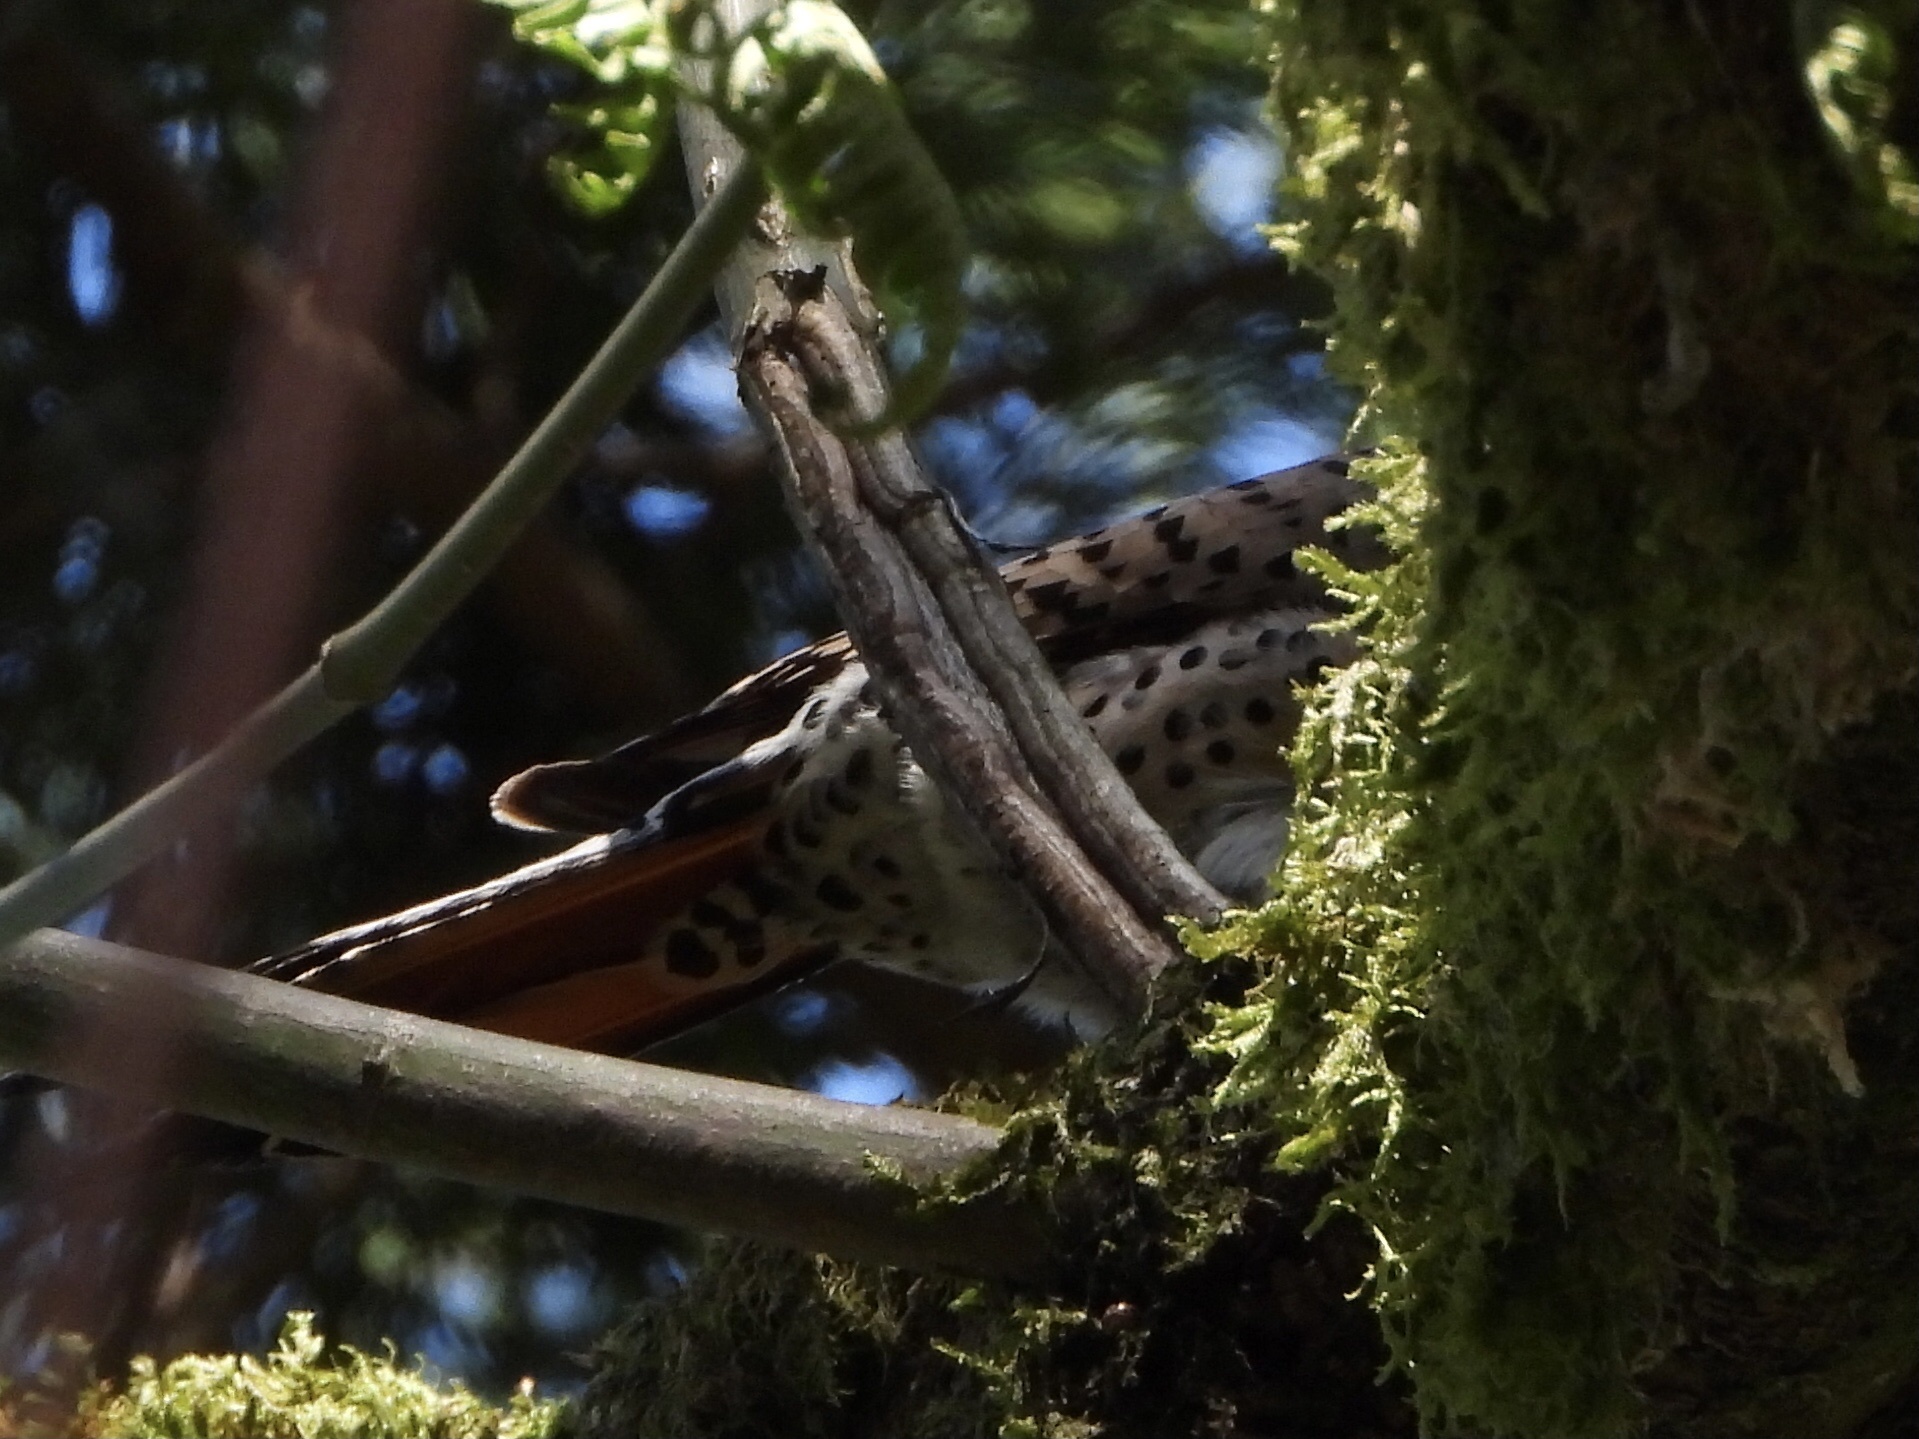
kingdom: Animalia
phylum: Chordata
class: Aves
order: Piciformes
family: Picidae
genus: Colaptes
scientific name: Colaptes auratus
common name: Northern flicker
